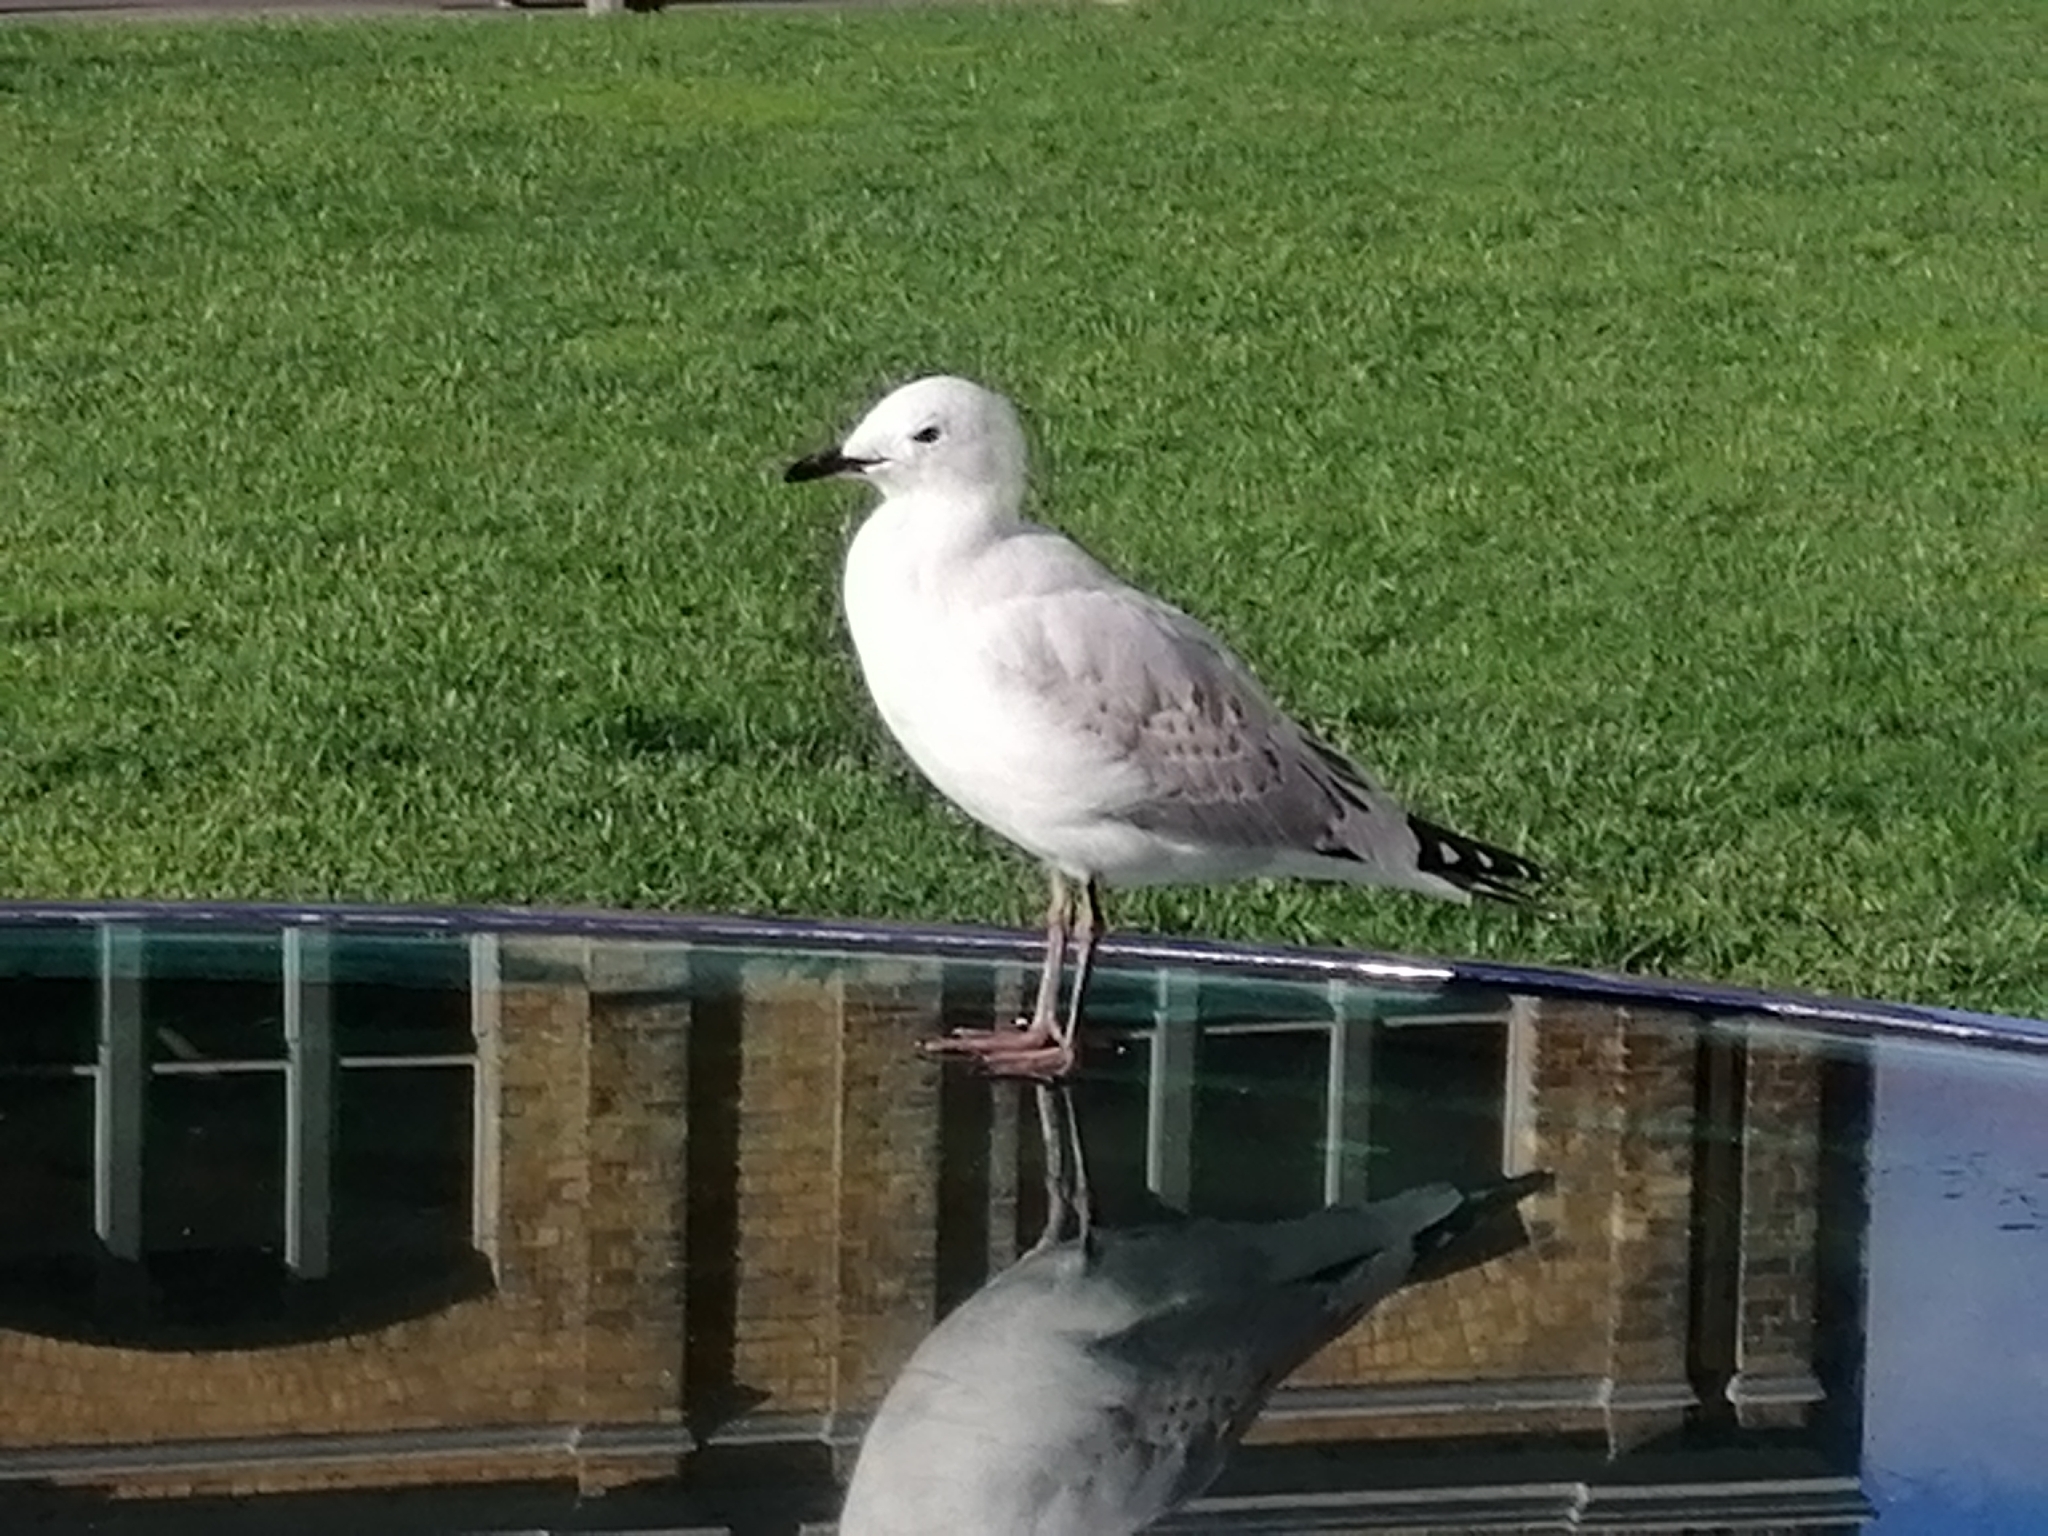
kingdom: Animalia
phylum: Chordata
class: Aves
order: Charadriiformes
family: Laridae
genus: Chroicocephalus
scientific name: Chroicocephalus novaehollandiae
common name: Silver gull
